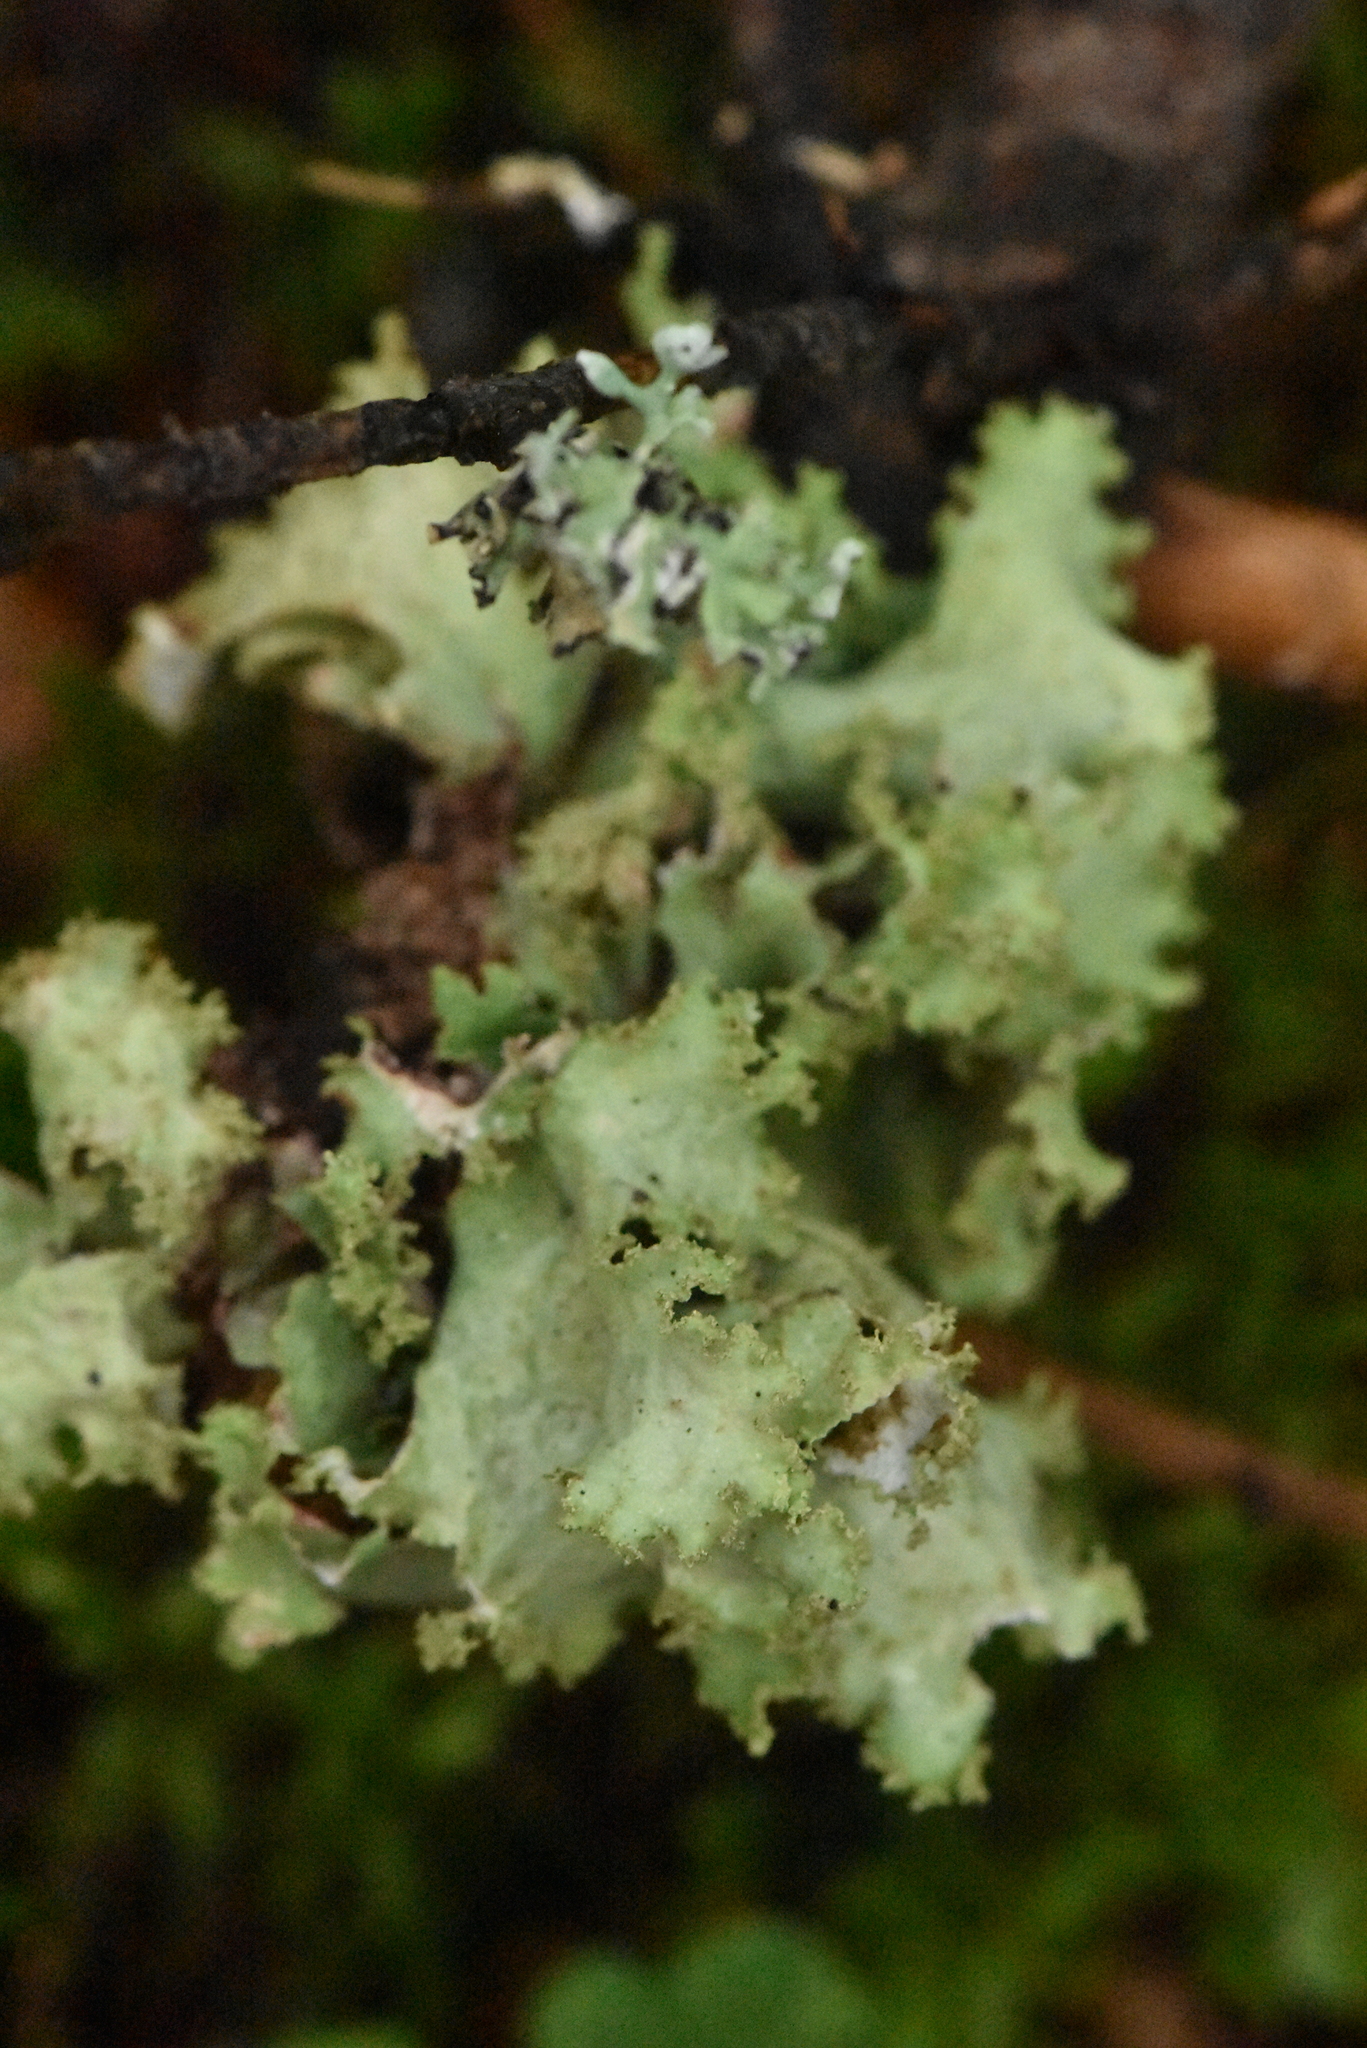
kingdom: Fungi
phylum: Ascomycota
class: Lecanoromycetes
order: Lecanorales
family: Parmeliaceae
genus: Platismatia
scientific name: Platismatia glauca
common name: Varied rag lichen
